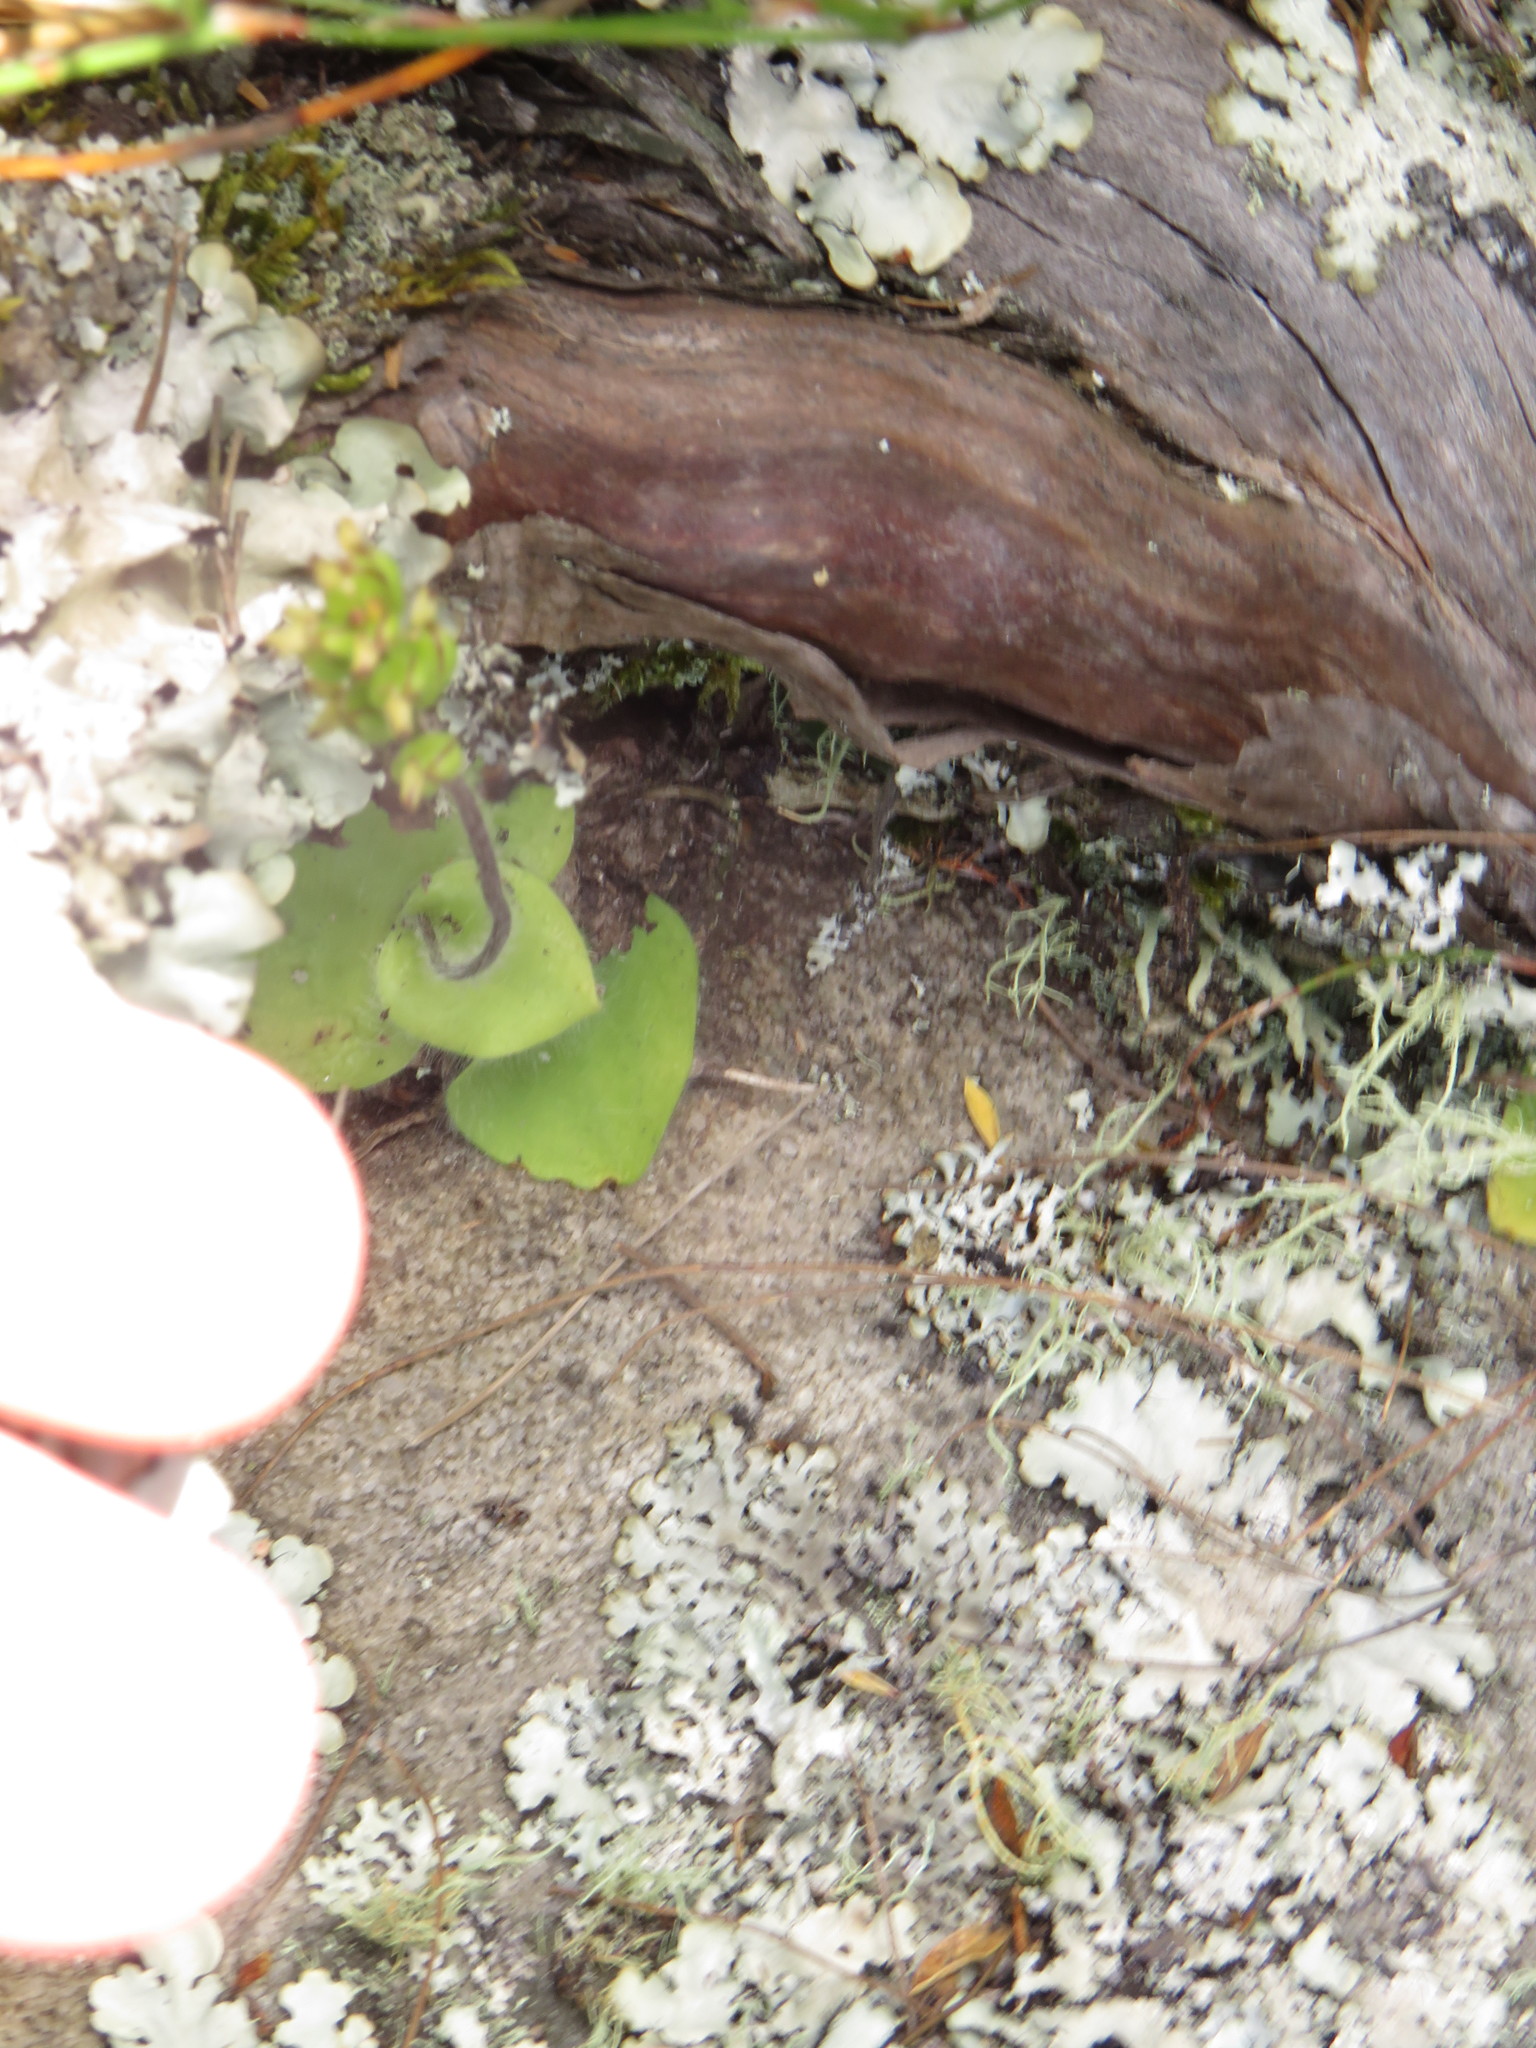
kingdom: Plantae
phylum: Tracheophyta
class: Liliopsida
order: Asparagales
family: Orchidaceae
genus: Holothrix
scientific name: Holothrix villosa
